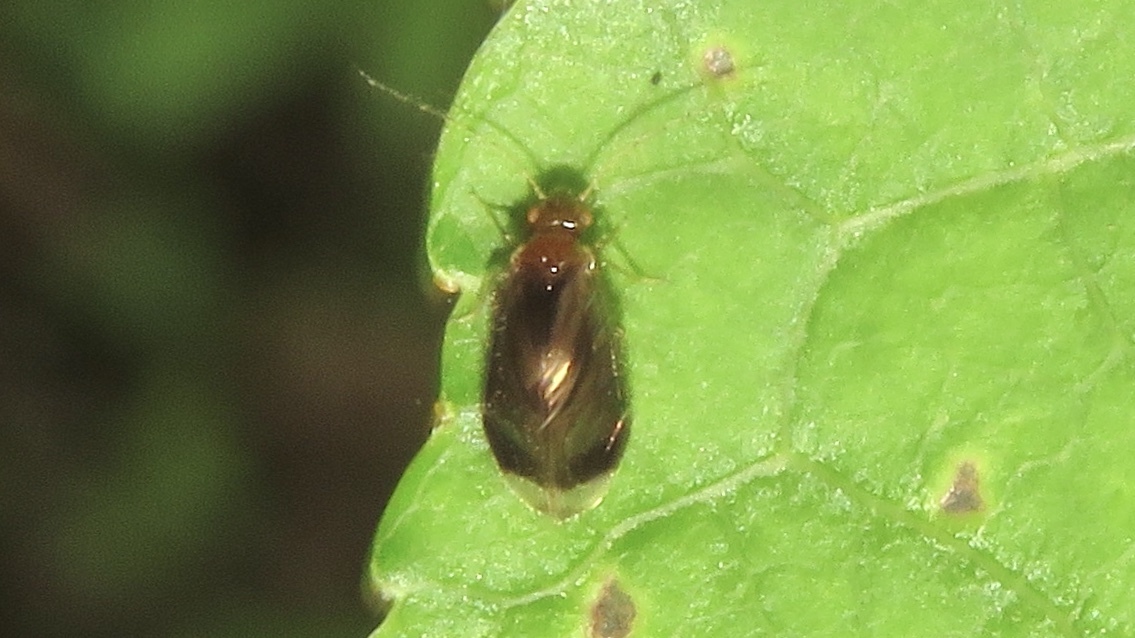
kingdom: Animalia
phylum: Arthropoda
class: Insecta
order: Psocodea
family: Amphipsocidae
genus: Polypsocus
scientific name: Polypsocus corruptus
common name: Corrupt barklouse
